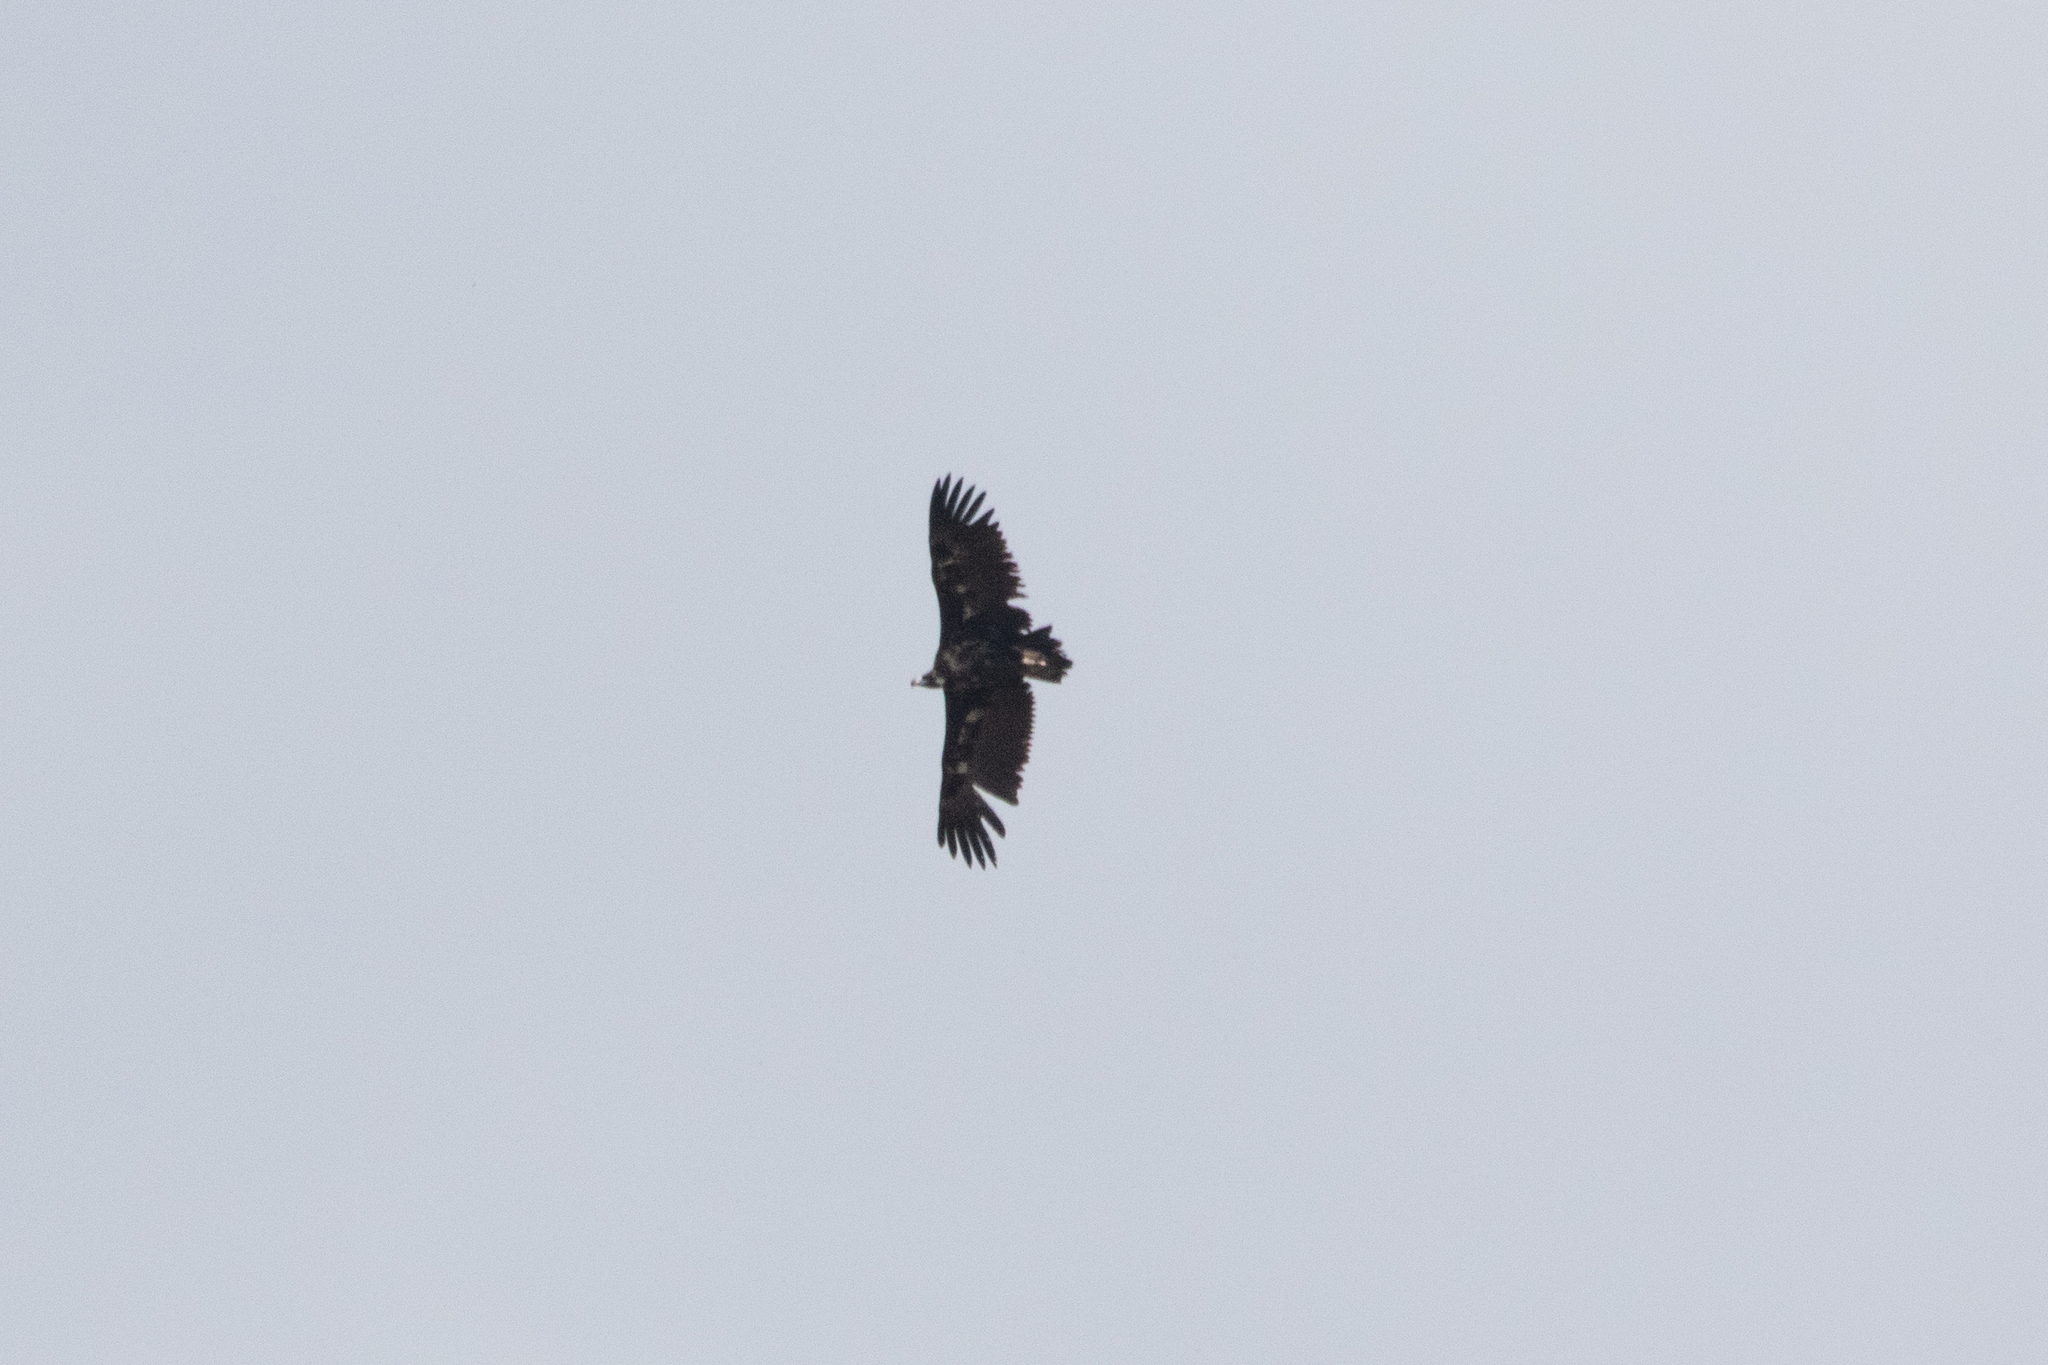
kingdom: Animalia
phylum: Chordata
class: Aves
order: Accipitriformes
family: Accipitridae
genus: Aegypius
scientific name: Aegypius monachus
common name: Cinereous vulture
